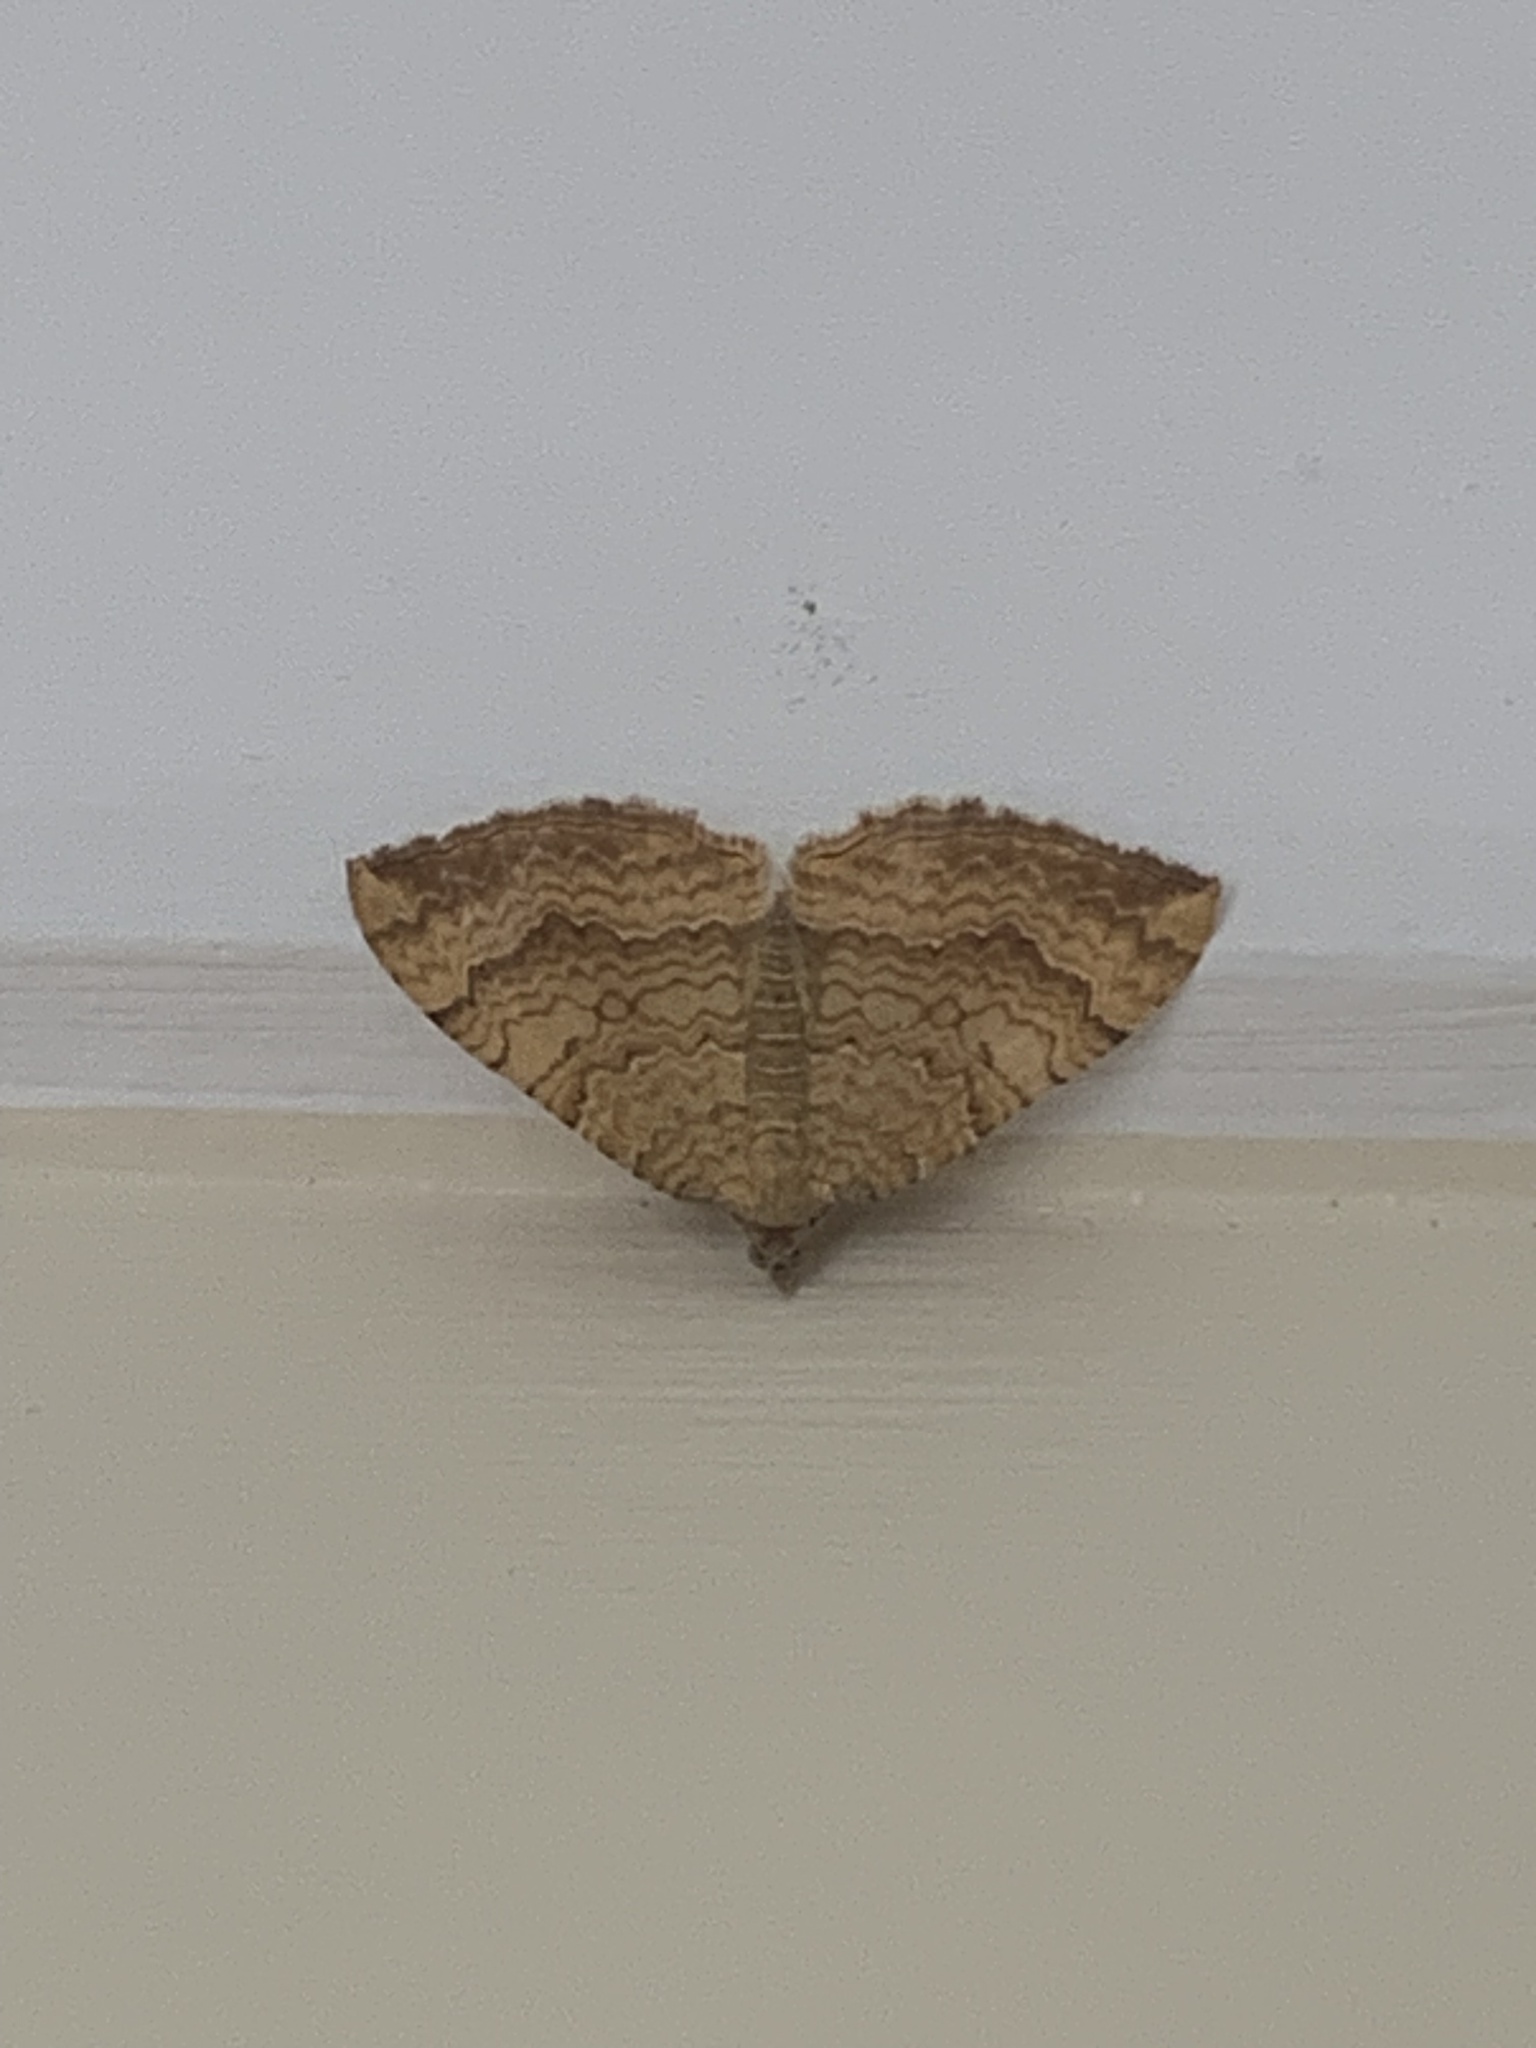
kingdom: Animalia
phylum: Arthropoda
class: Insecta
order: Lepidoptera
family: Geometridae
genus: Camptogramma
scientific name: Camptogramma bilineata
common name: Yellow shell
